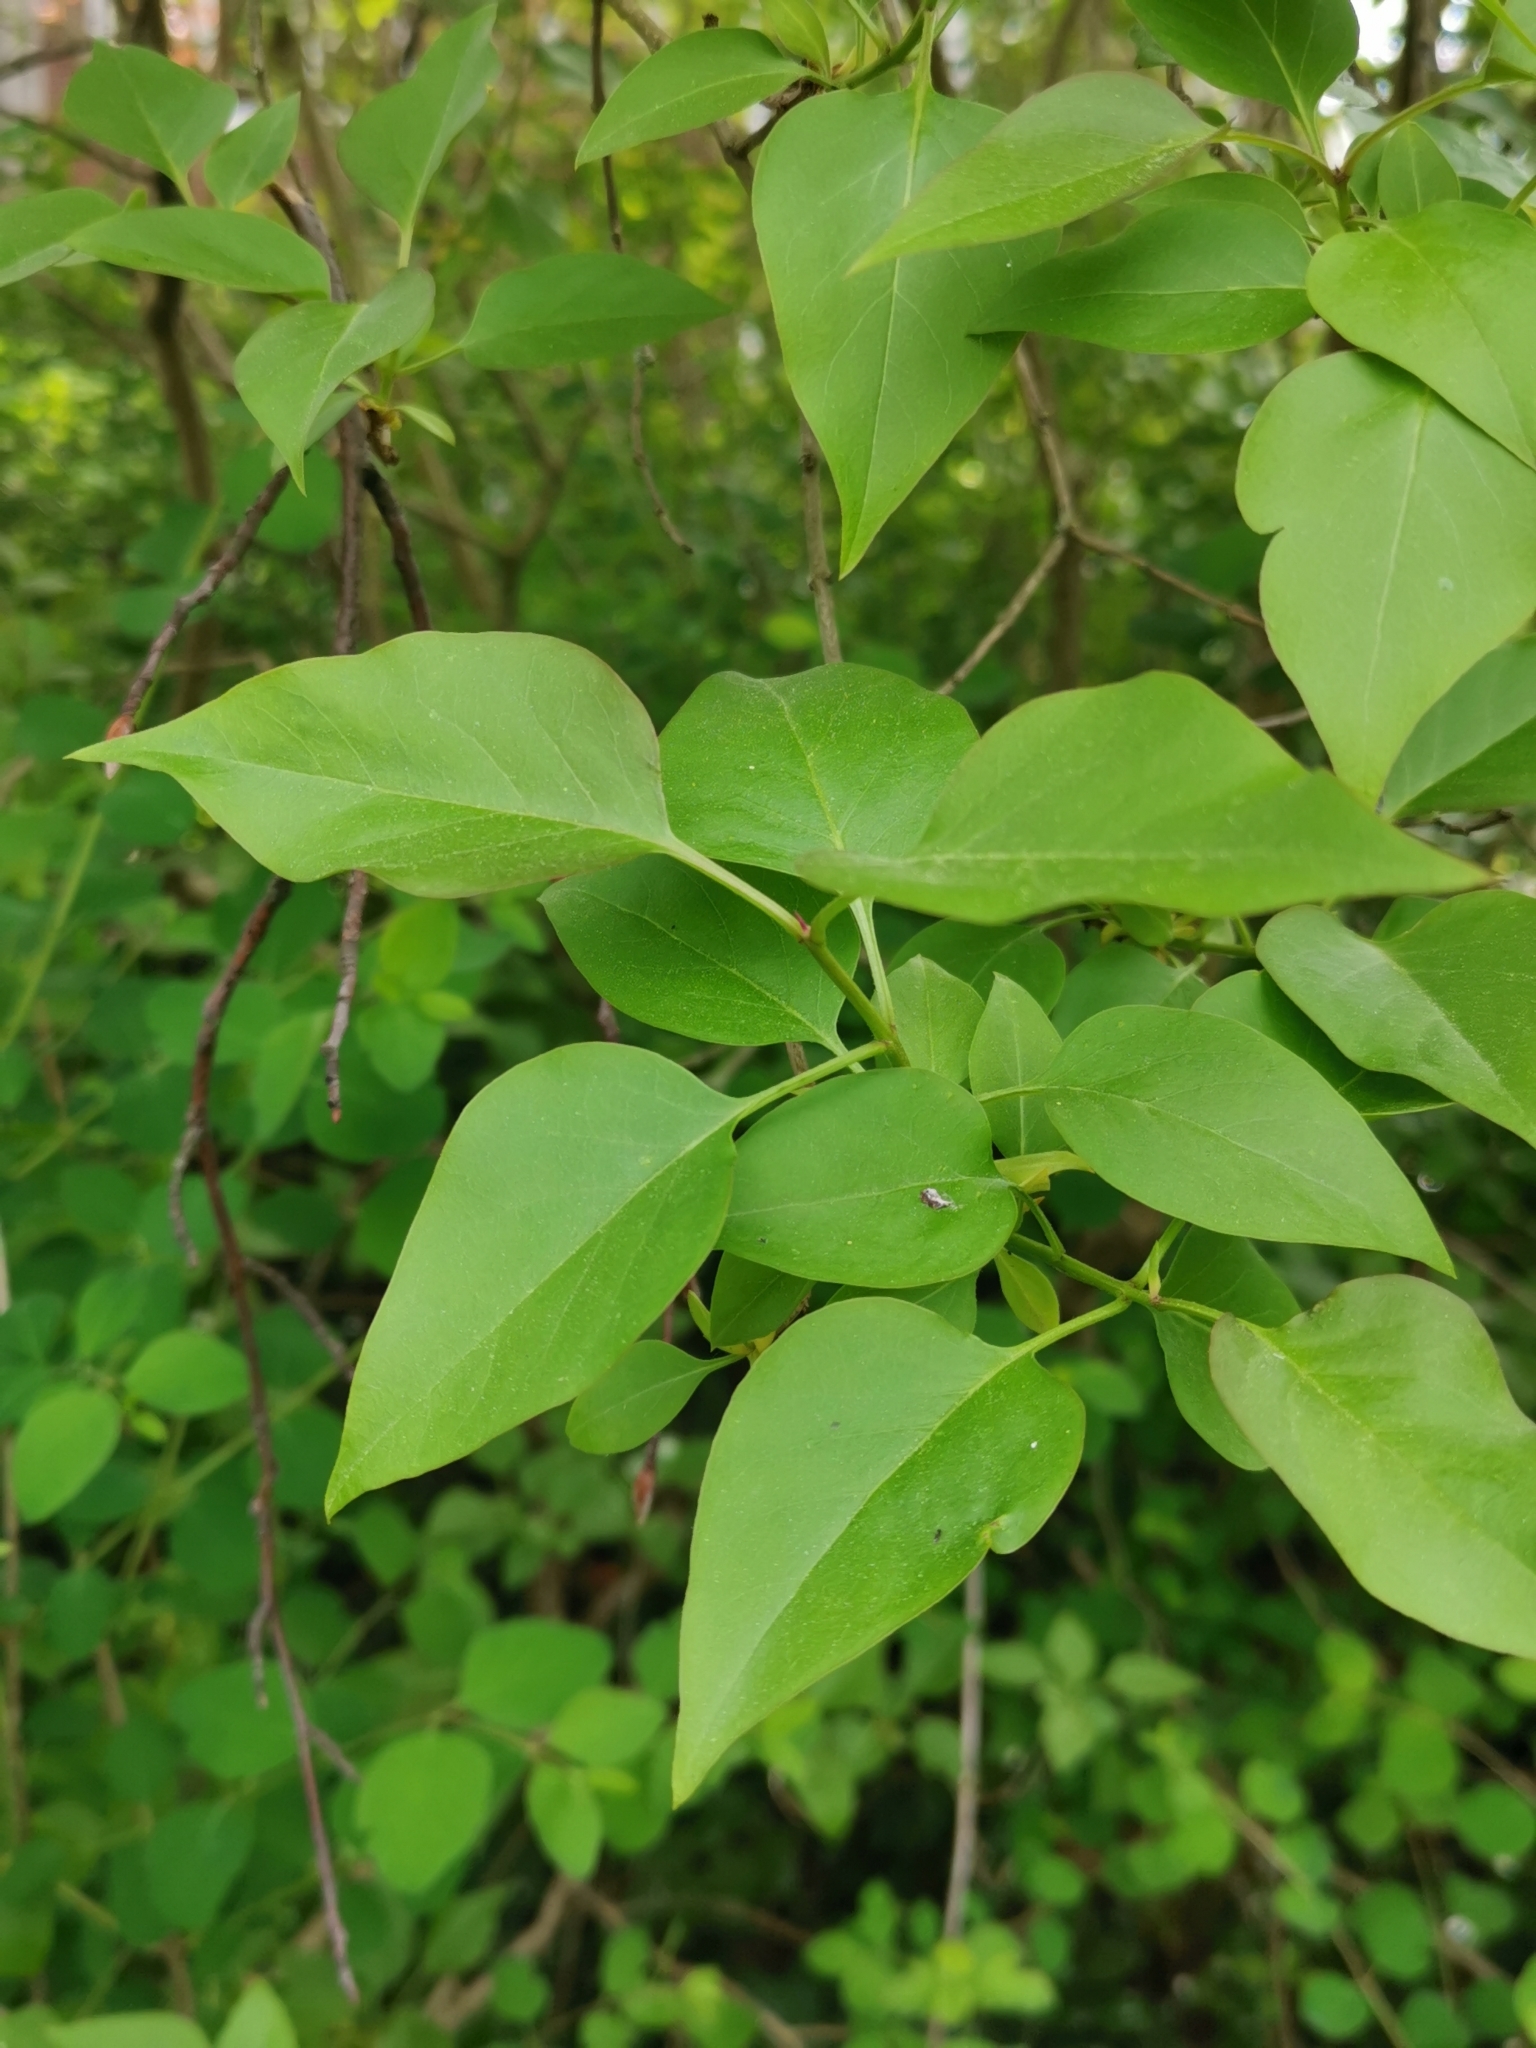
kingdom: Plantae
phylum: Tracheophyta
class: Magnoliopsida
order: Lamiales
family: Oleaceae
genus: Syringa
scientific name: Syringa vulgaris
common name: Common lilac
